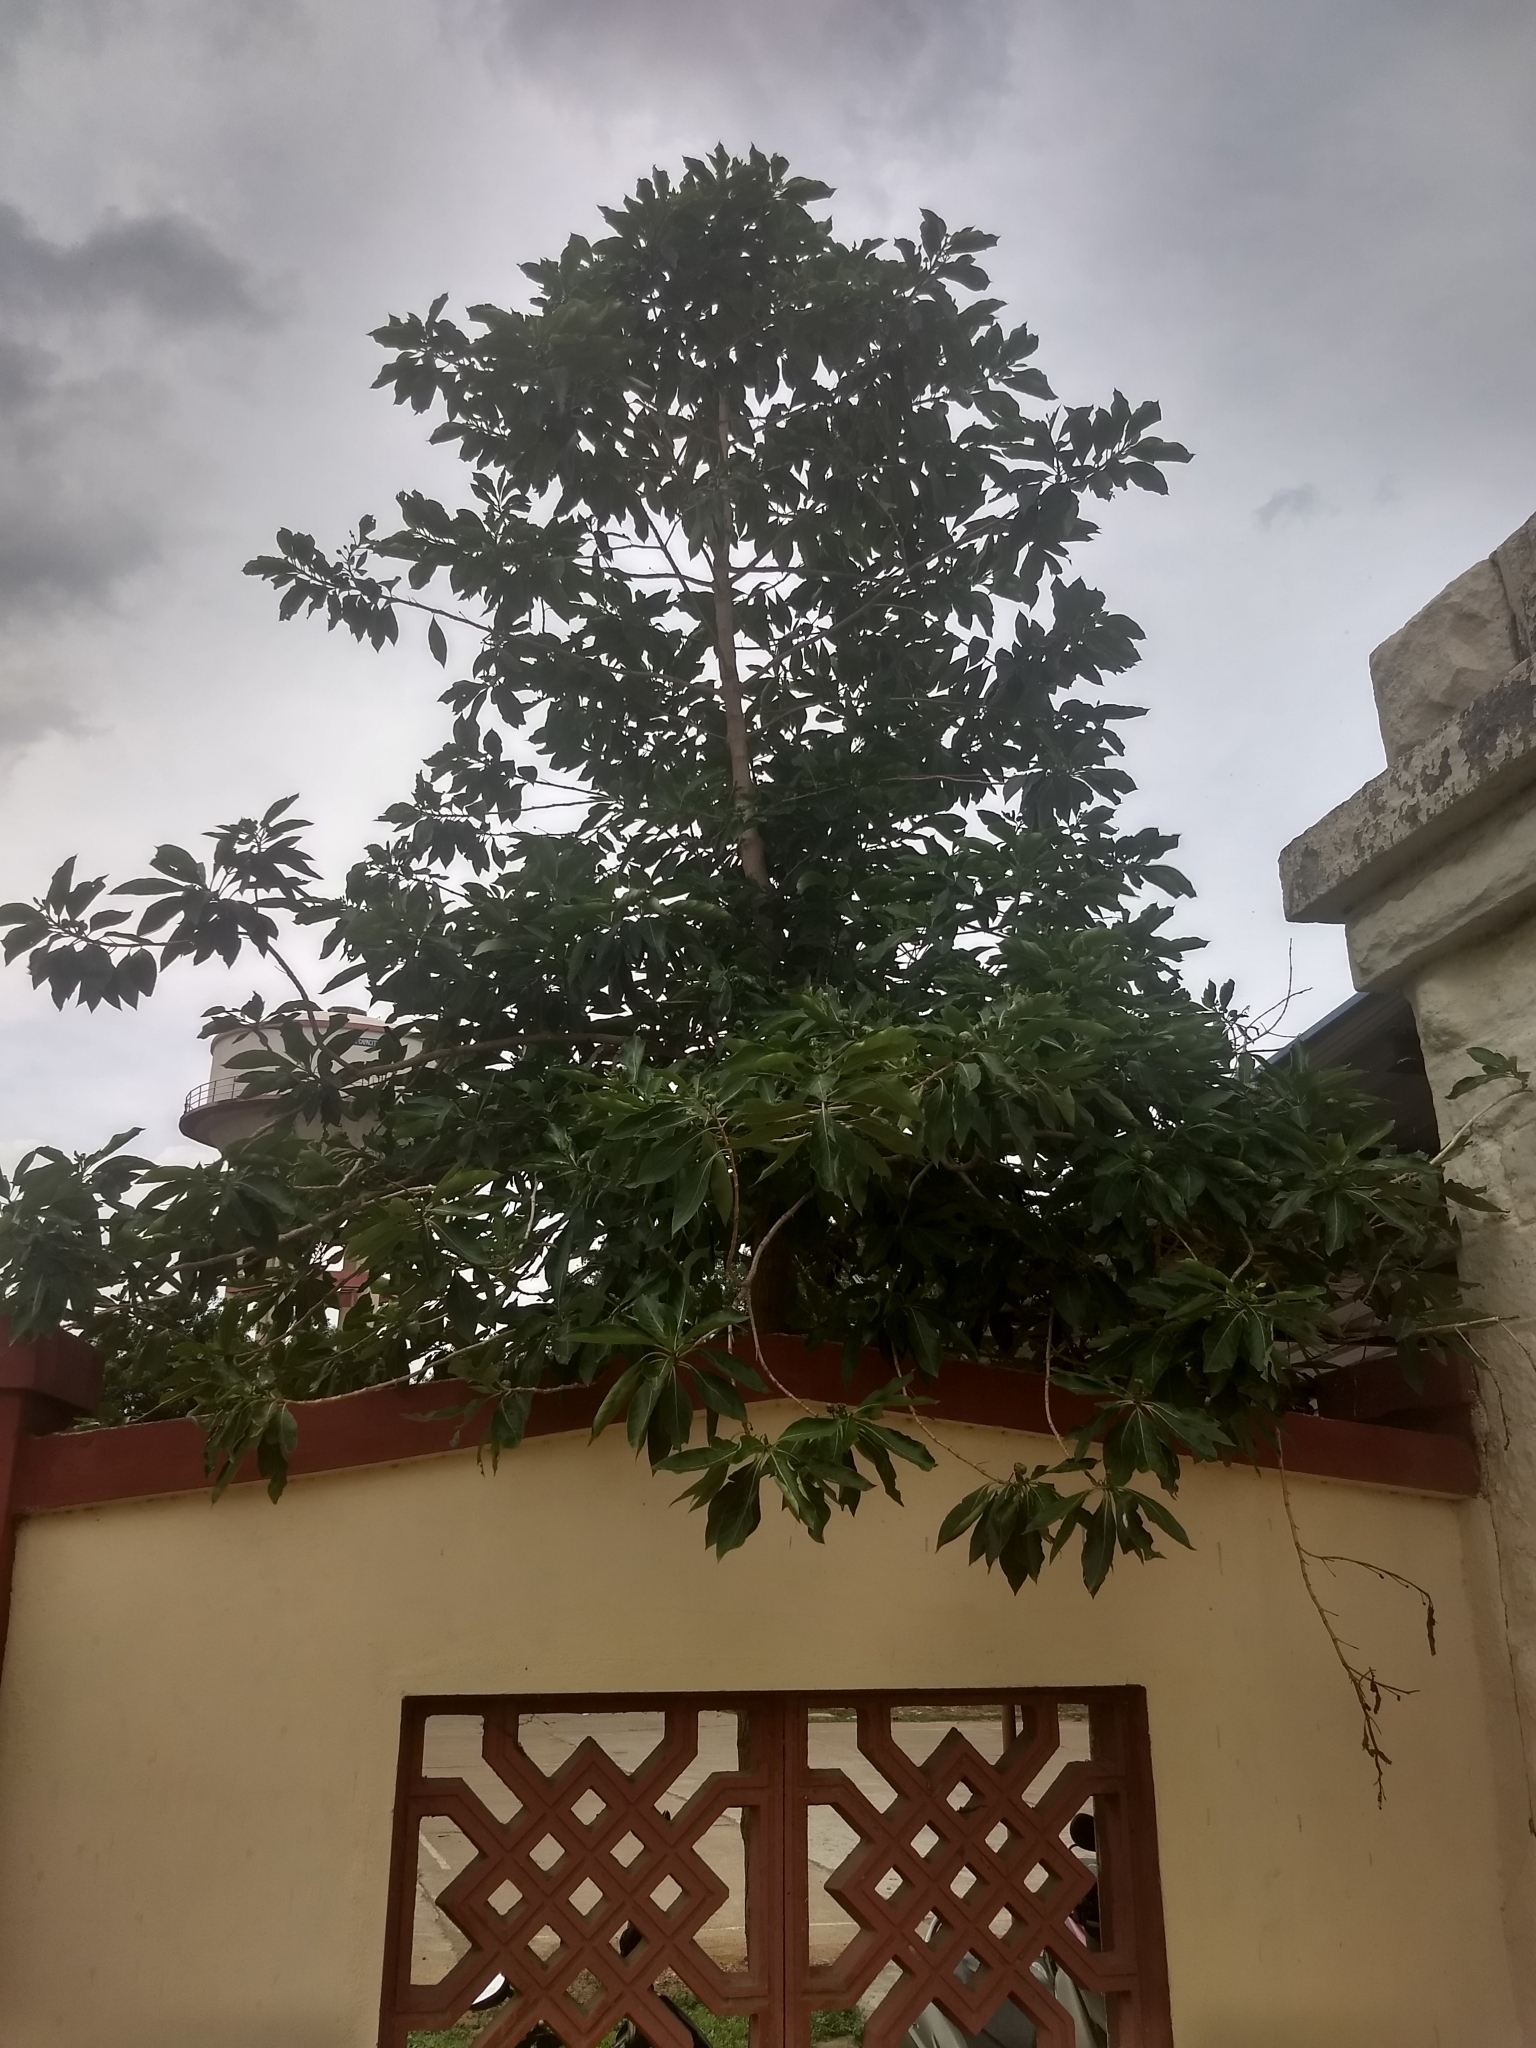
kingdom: Plantae
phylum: Tracheophyta
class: Magnoliopsida
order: Gentianales
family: Rubiaceae
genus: Morinda
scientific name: Morinda citrifolia
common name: Indian-mulberry
